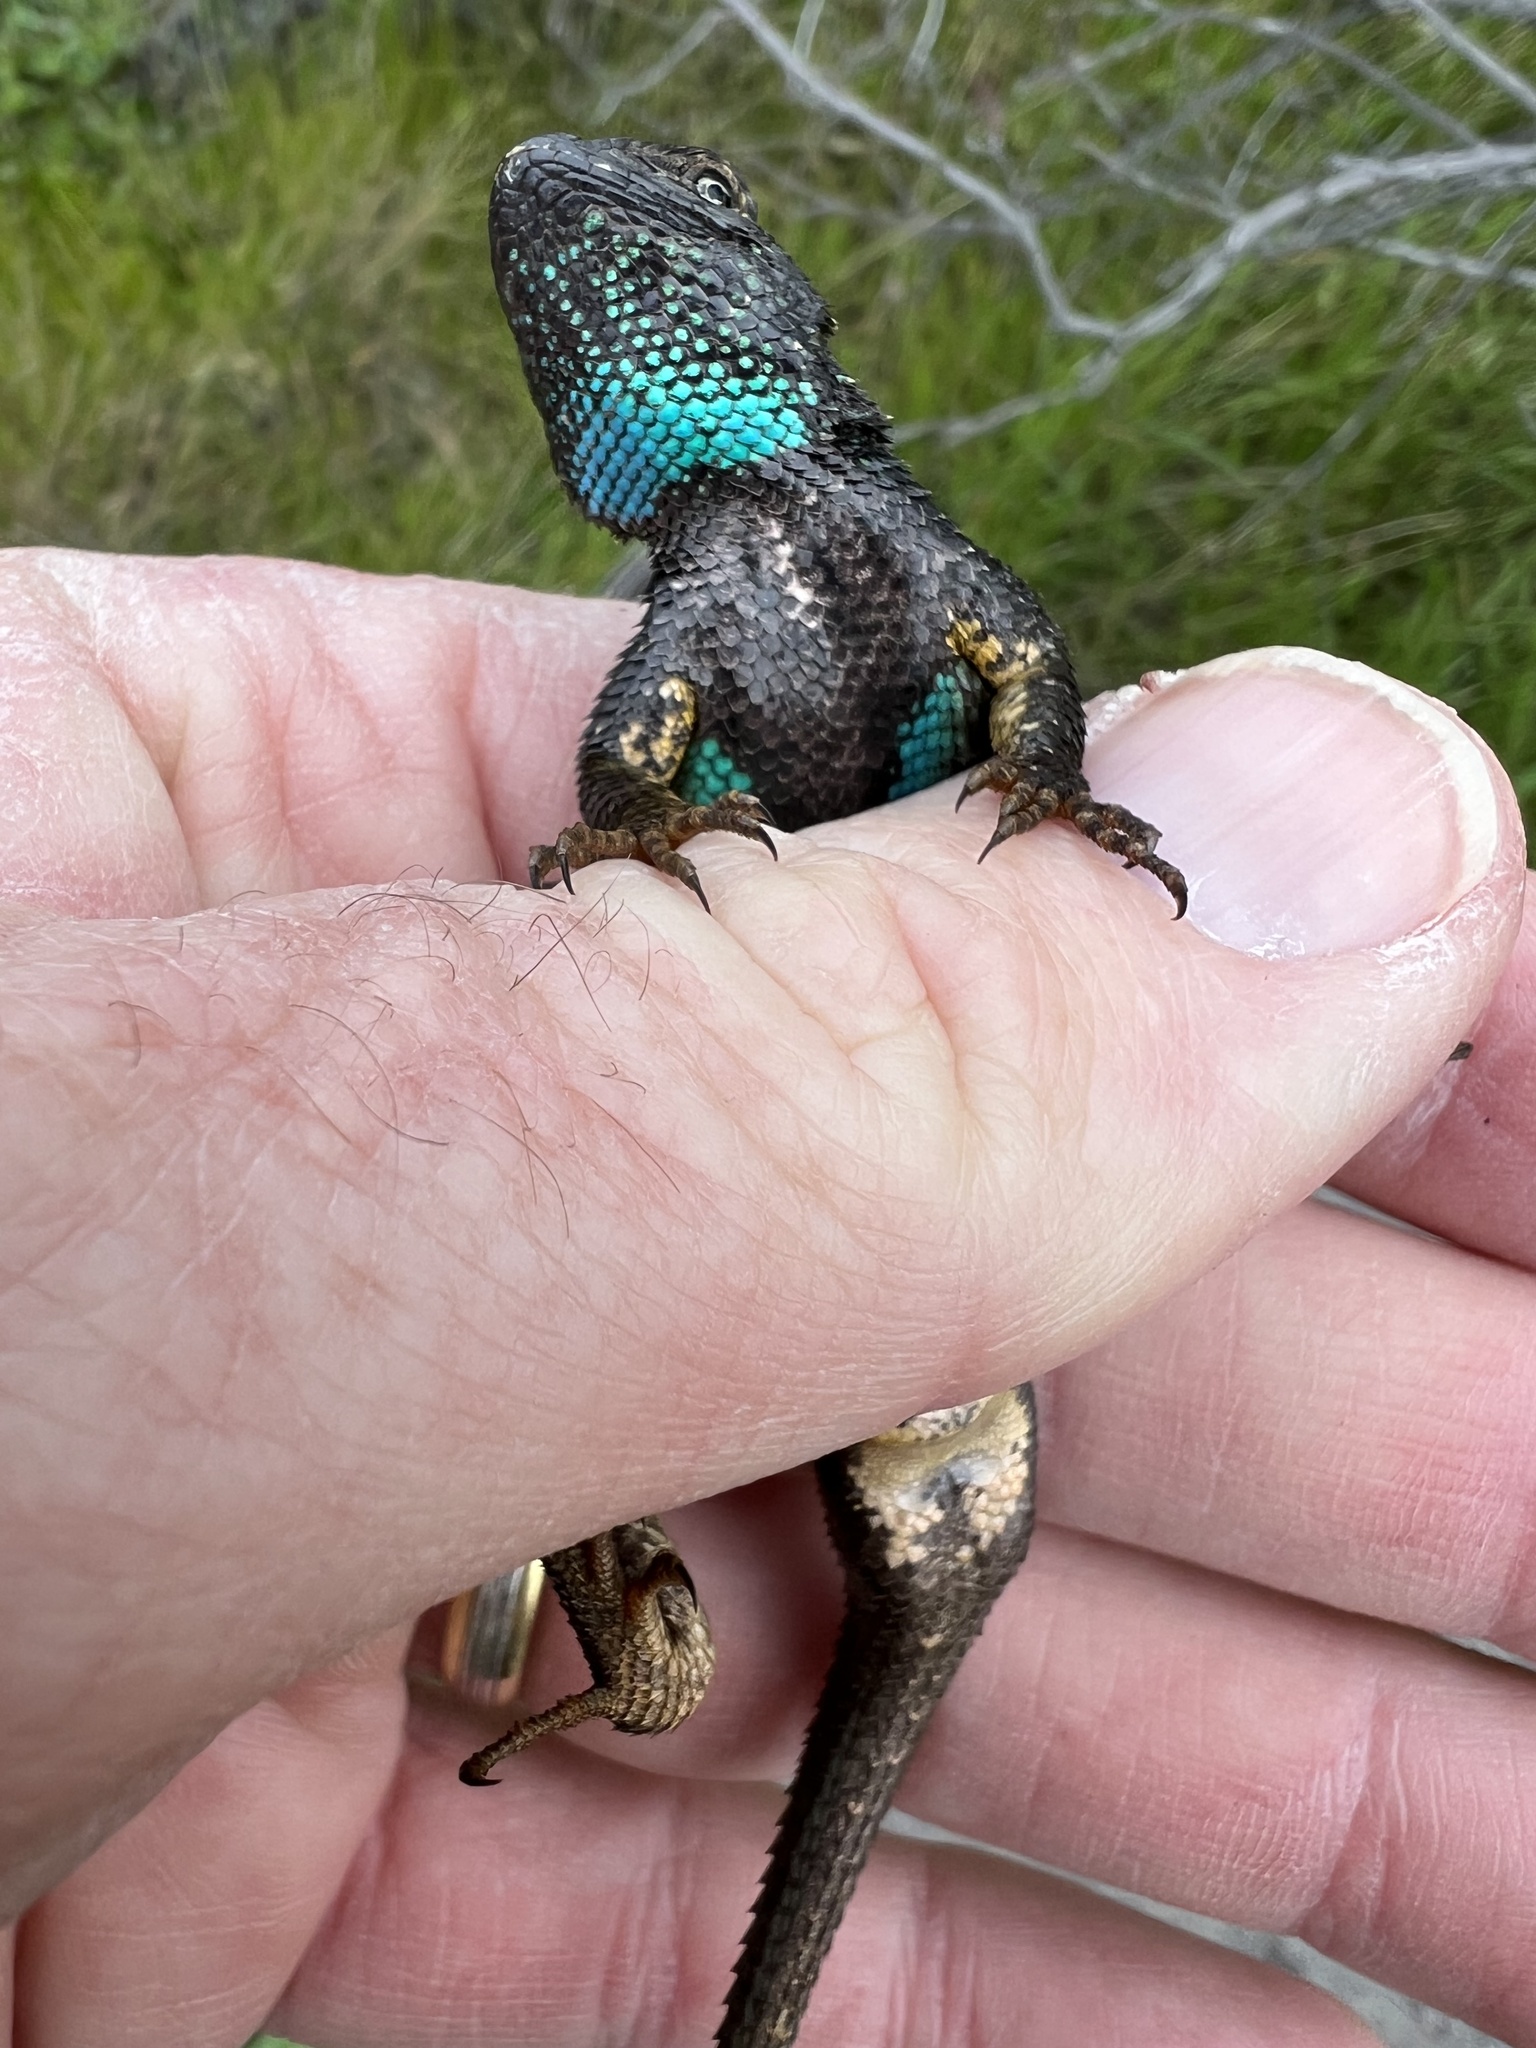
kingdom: Animalia
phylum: Chordata
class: Squamata
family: Phrynosomatidae
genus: Sceloporus
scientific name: Sceloporus occidentalis
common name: Western fence lizard
